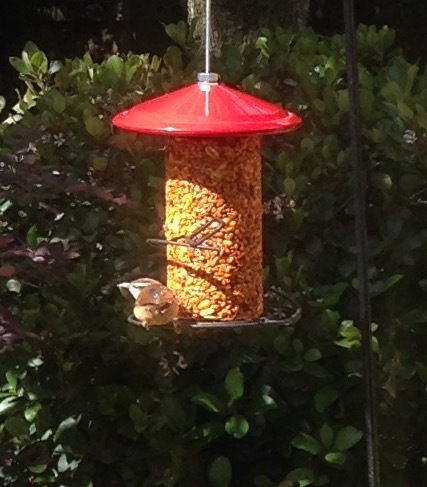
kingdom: Animalia
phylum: Chordata
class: Aves
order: Passeriformes
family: Troglodytidae
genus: Thryothorus
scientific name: Thryothorus ludovicianus
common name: Carolina wren
